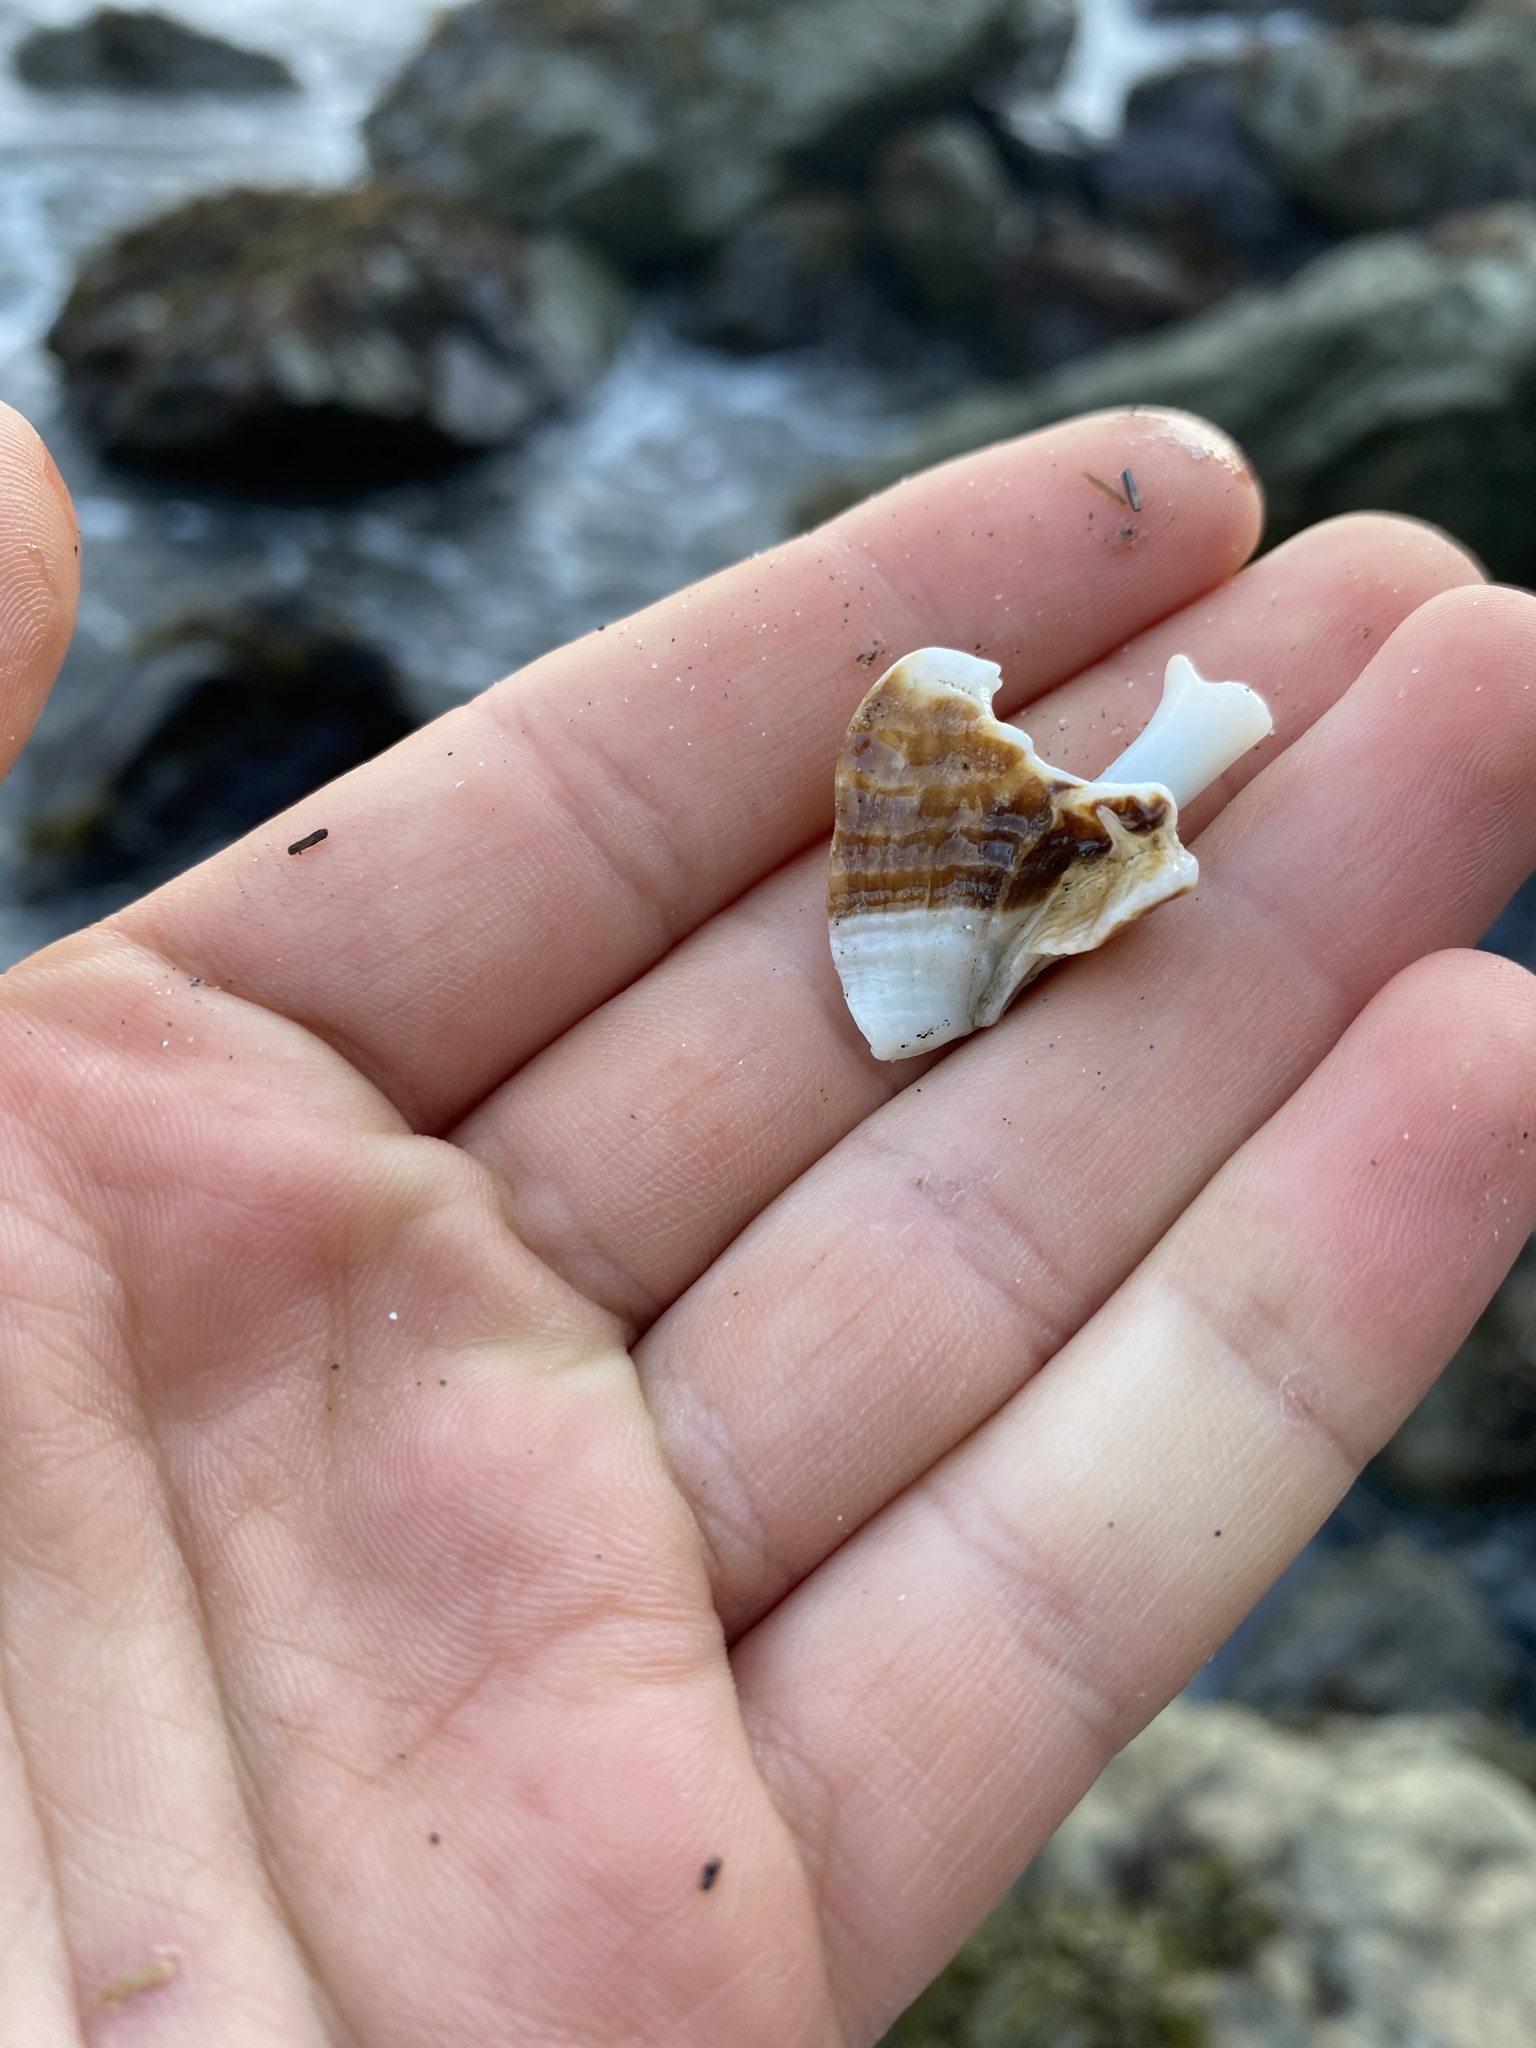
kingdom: Animalia
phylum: Mollusca
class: Gastropoda
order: Neogastropoda
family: Muricidae
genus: Ceratostoma
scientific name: Ceratostoma foliatum
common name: Foliate thorn purpura
